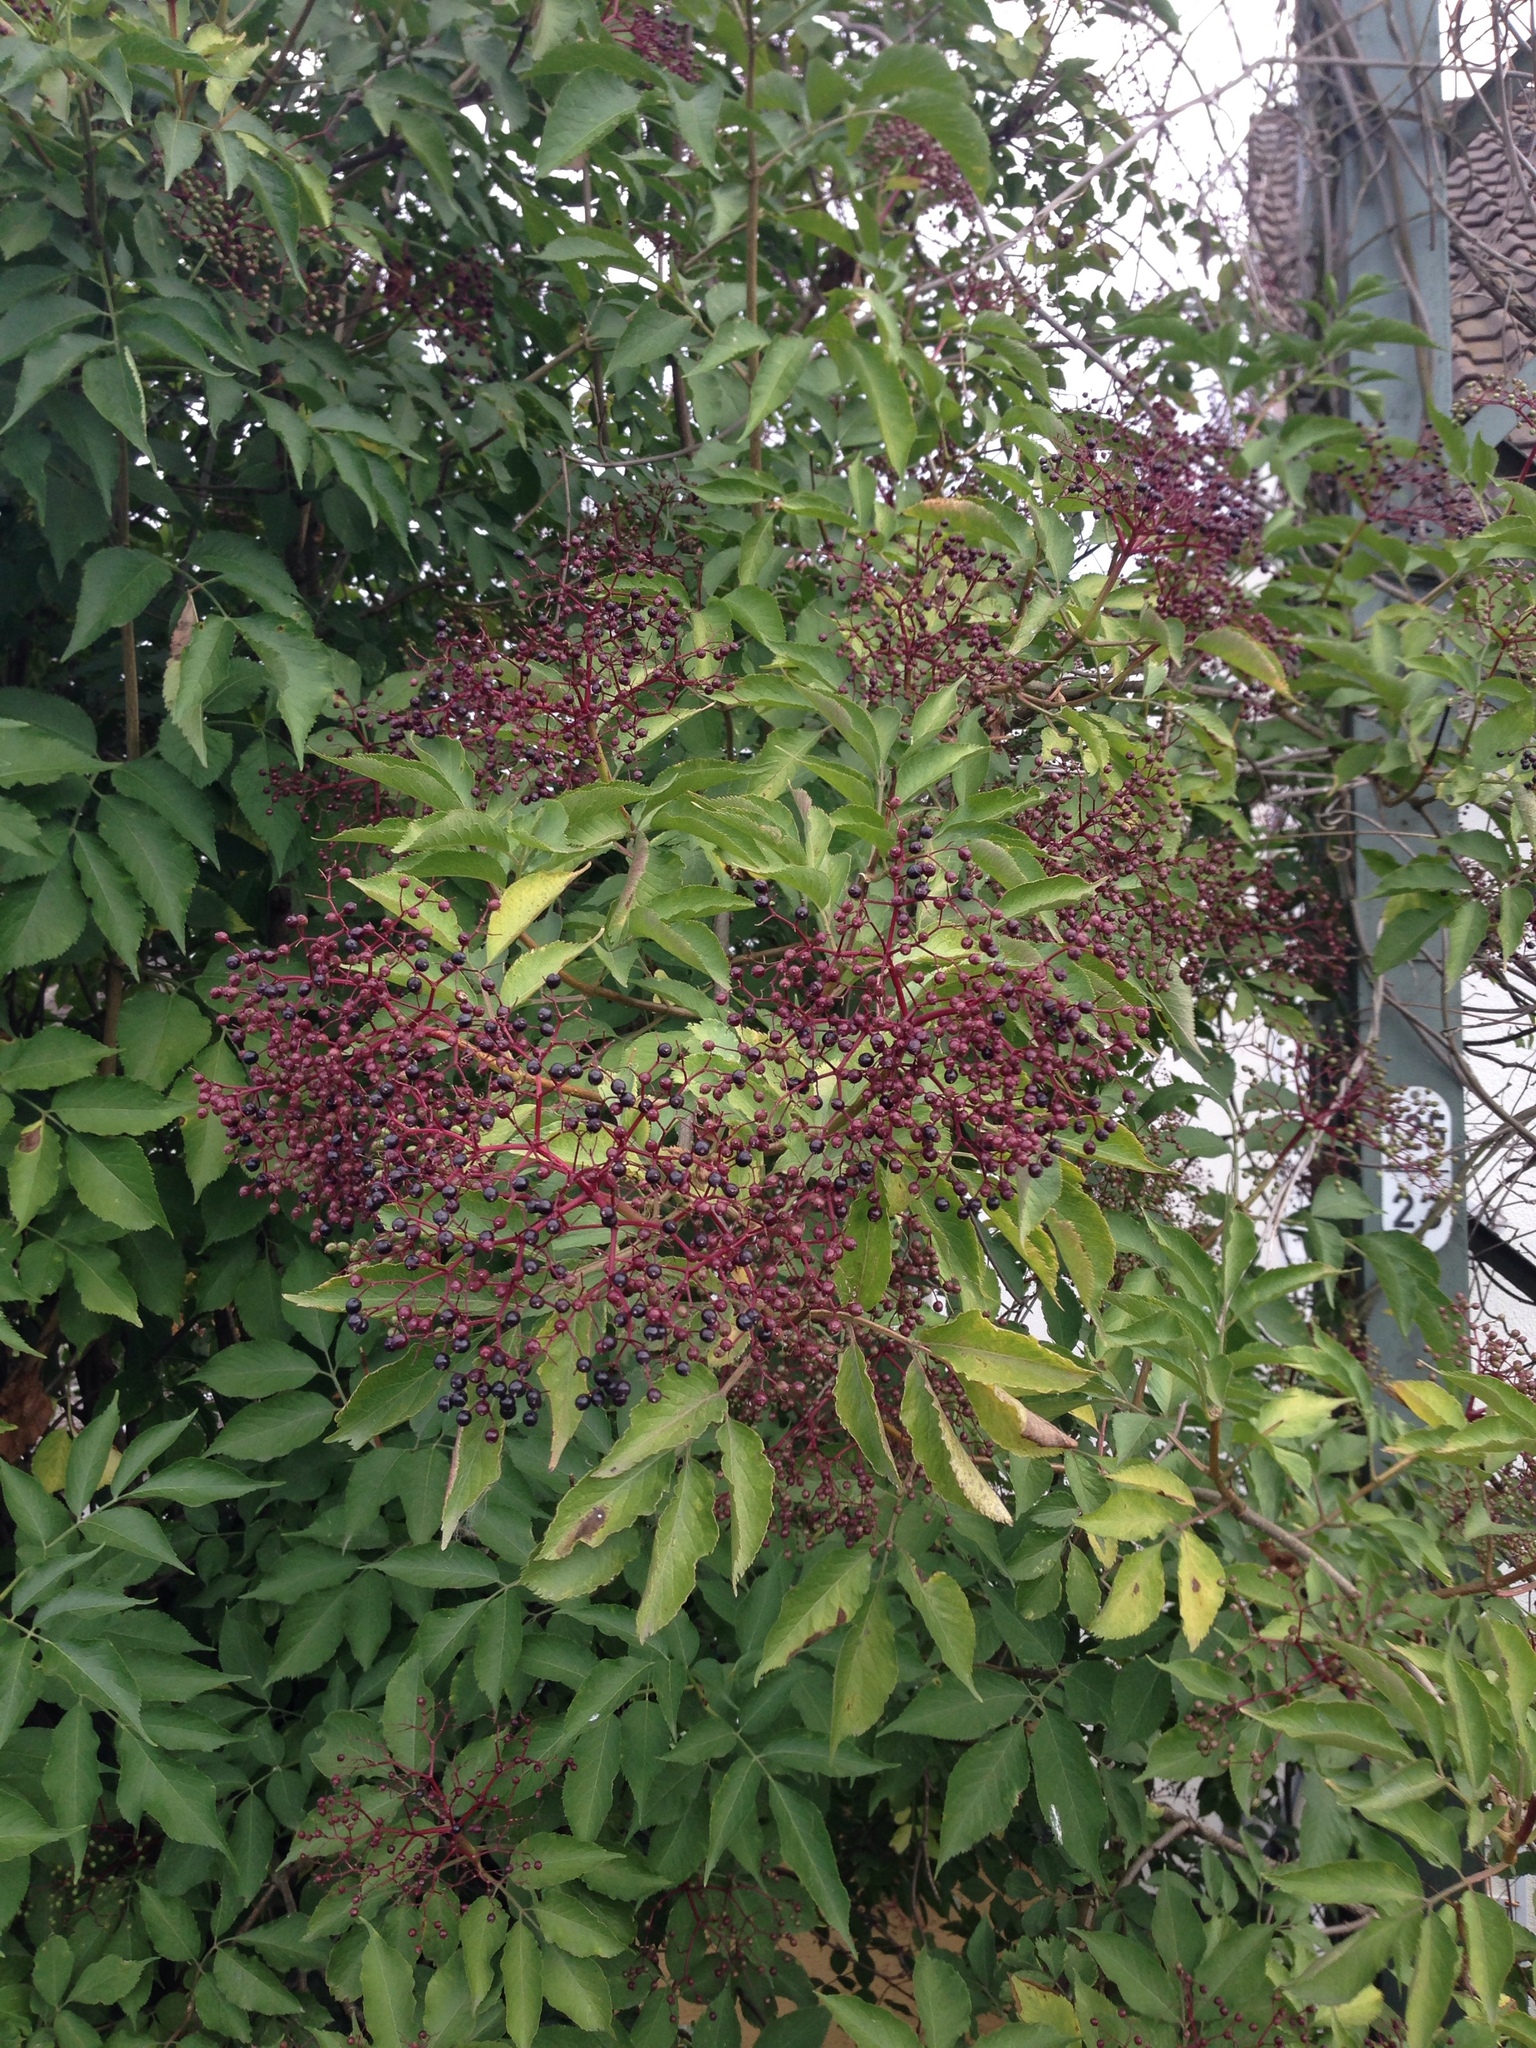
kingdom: Plantae
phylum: Tracheophyta
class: Magnoliopsida
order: Dipsacales
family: Viburnaceae
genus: Sambucus
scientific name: Sambucus nigra
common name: Elder
